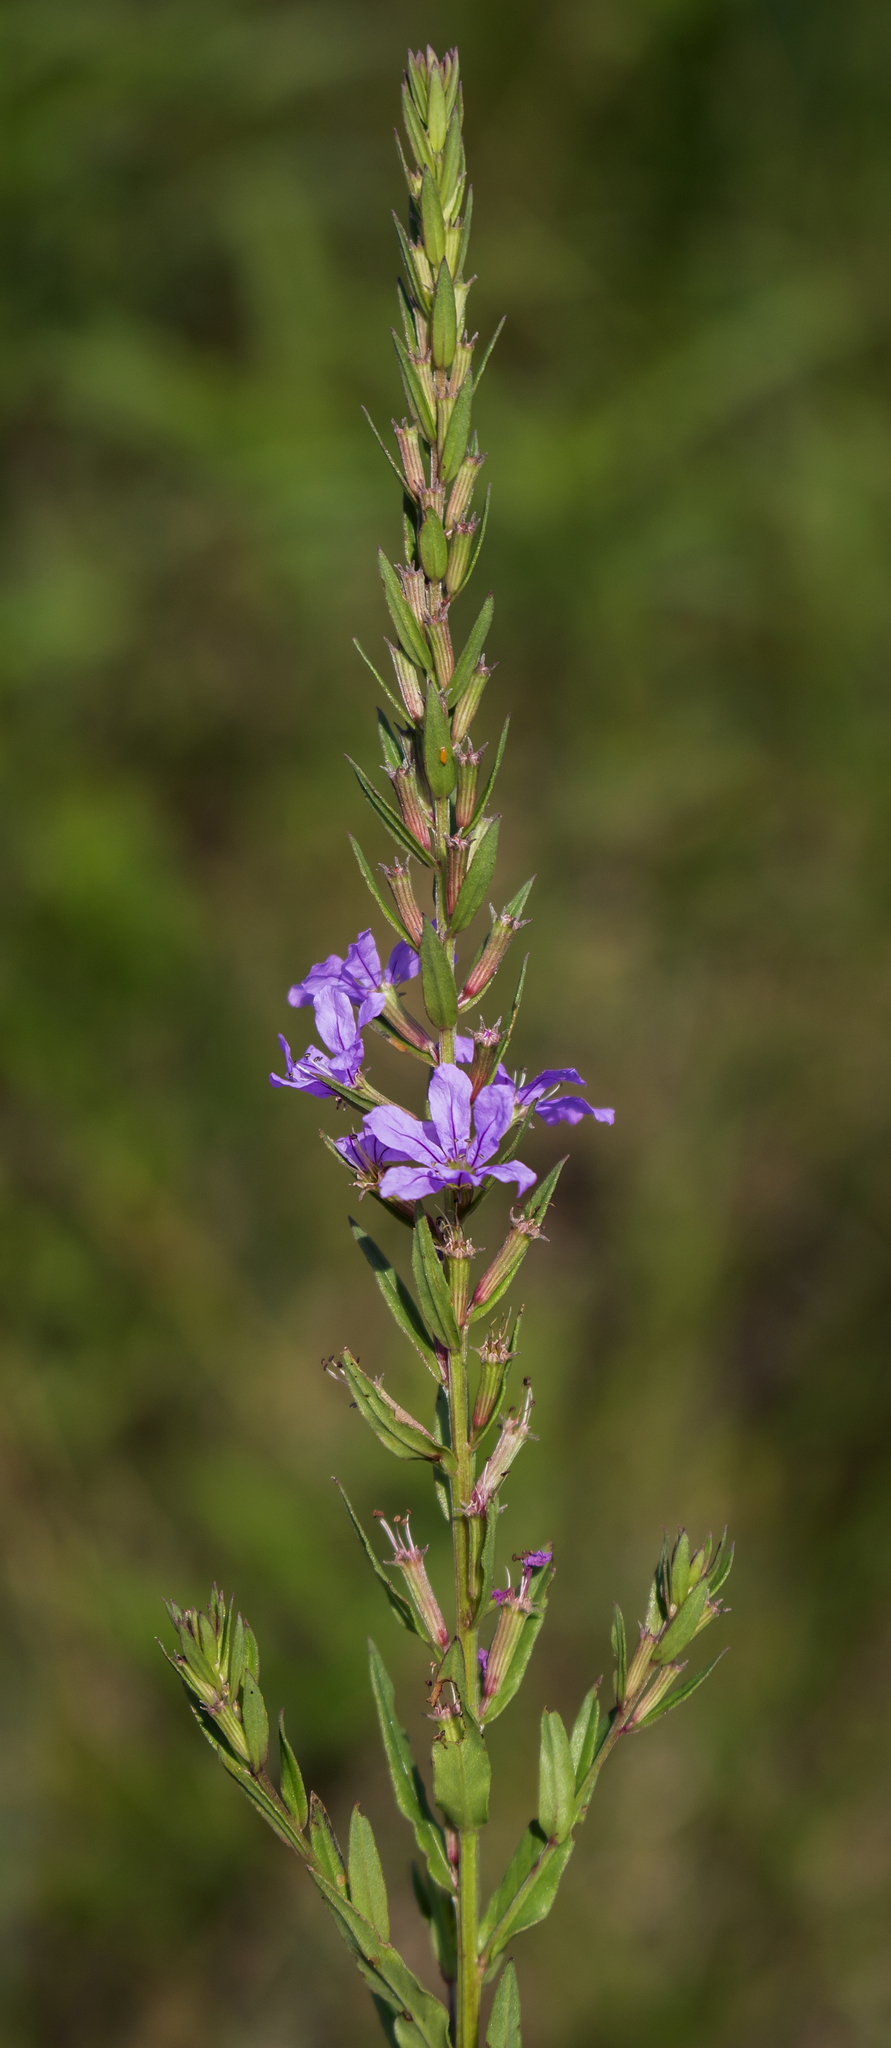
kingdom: Plantae
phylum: Tracheophyta
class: Magnoliopsida
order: Myrtales
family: Lythraceae
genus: Lythrum
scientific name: Lythrum alatum
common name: Winged loosestrife
